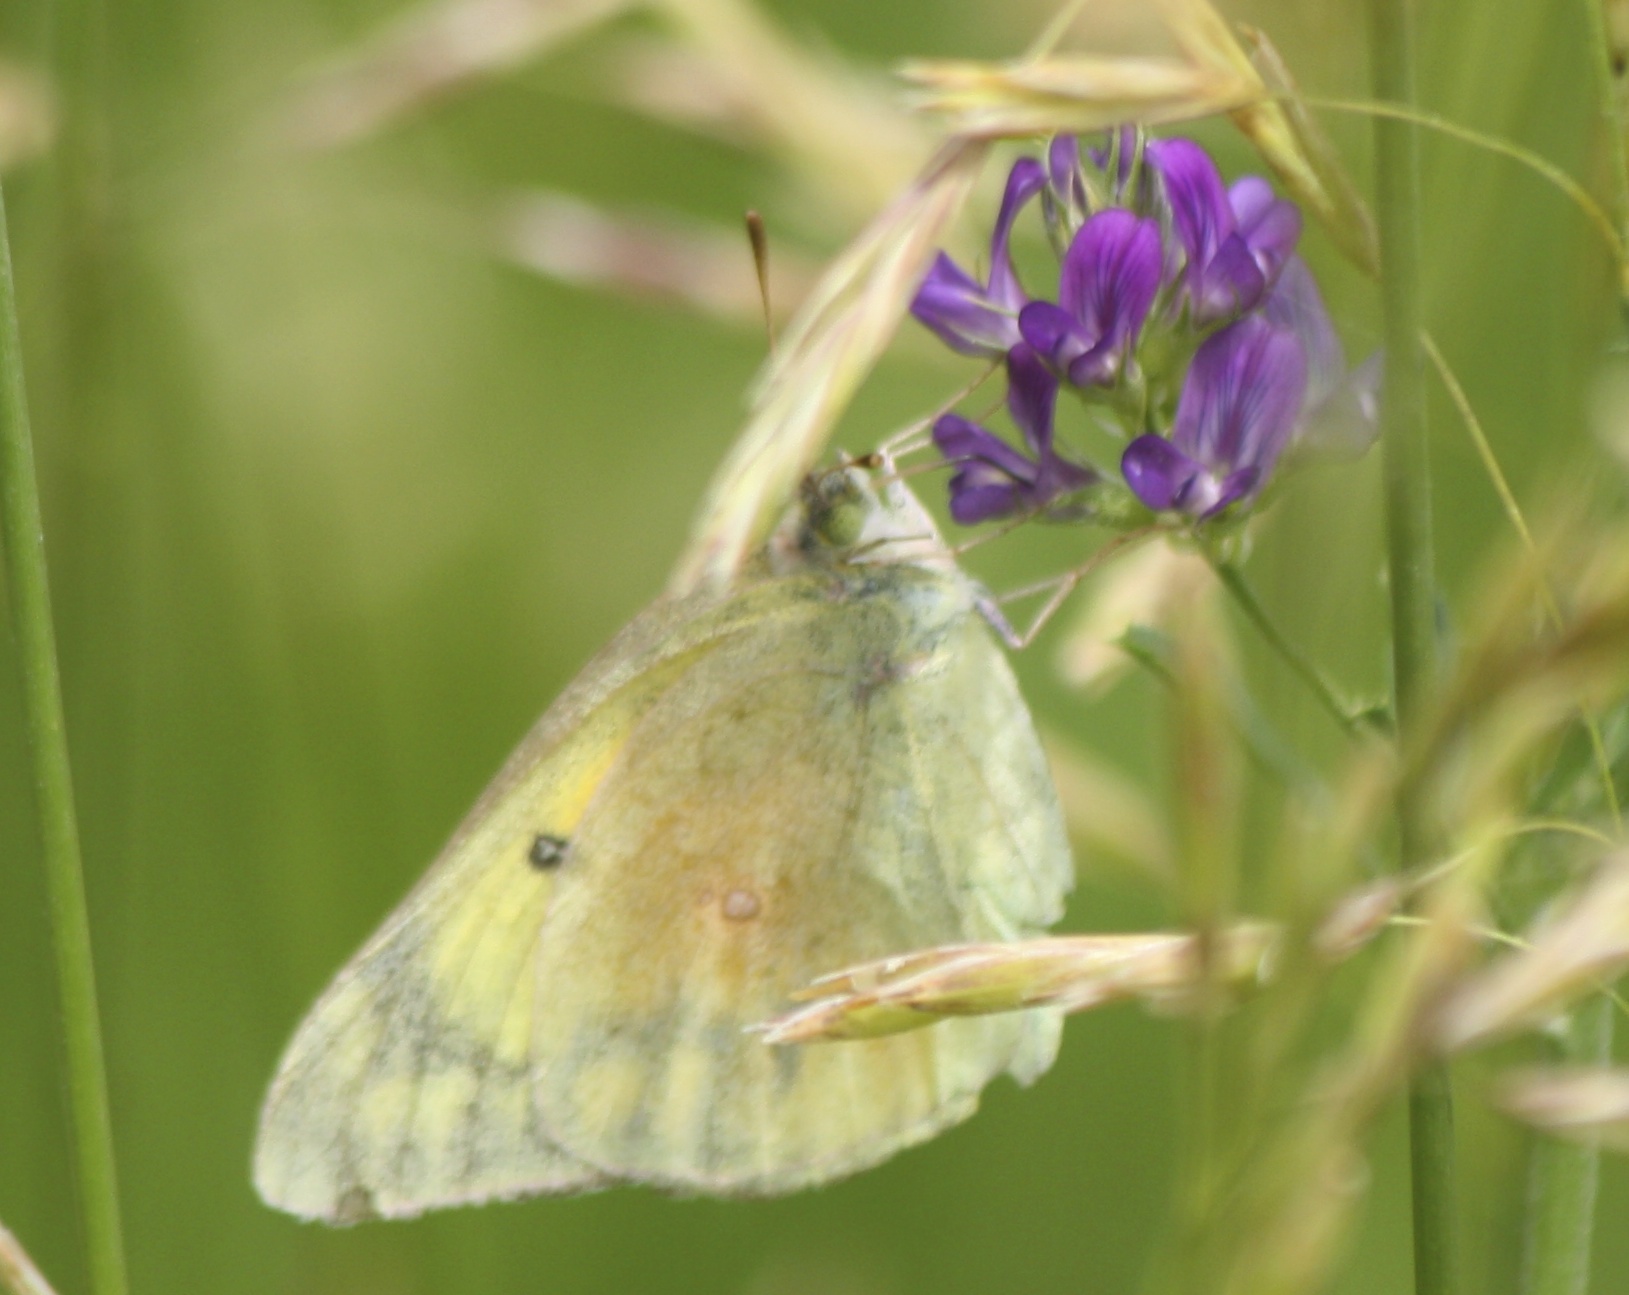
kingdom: Animalia
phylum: Arthropoda
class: Insecta
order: Lepidoptera
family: Pieridae
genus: Colias
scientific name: Colias eurytheme
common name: Alfalfa butterfly
